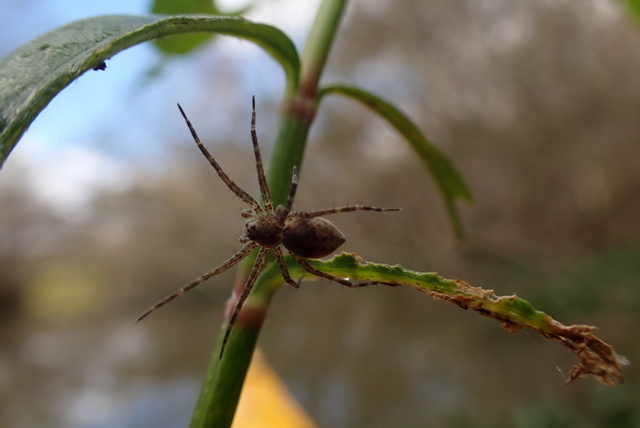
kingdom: Animalia
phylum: Arthropoda
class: Arachnida
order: Araneae
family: Pisauridae
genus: Dolomedes
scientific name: Dolomedes
